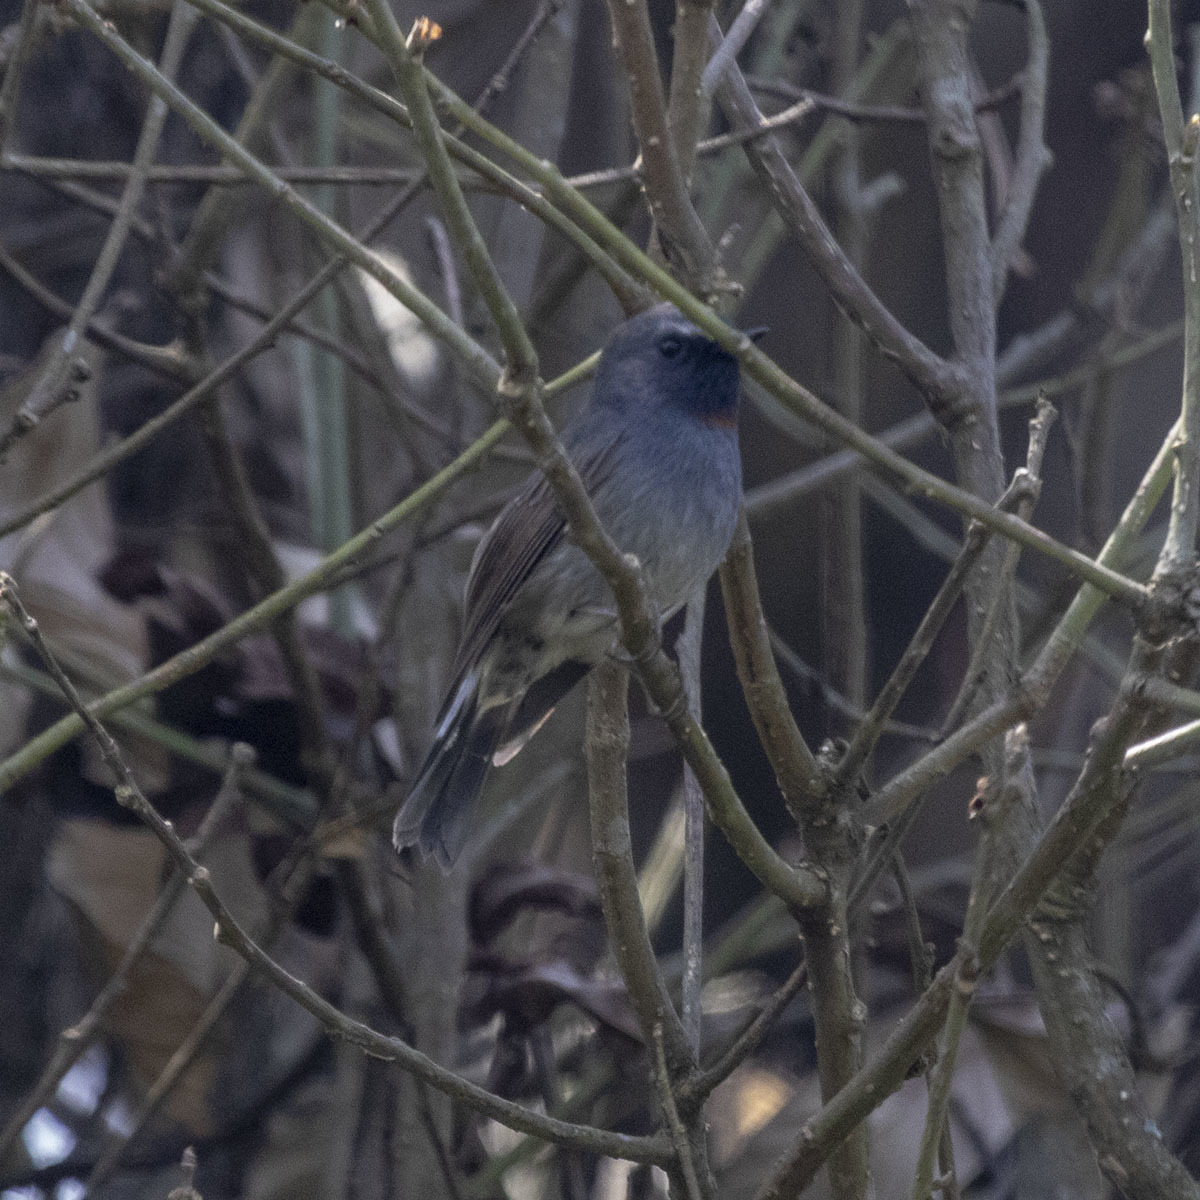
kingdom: Animalia
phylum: Chordata
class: Aves
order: Passeriformes
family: Muscicapidae
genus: Ficedula
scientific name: Ficedula strophiata
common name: Rufous-gorgeted flycatcher
